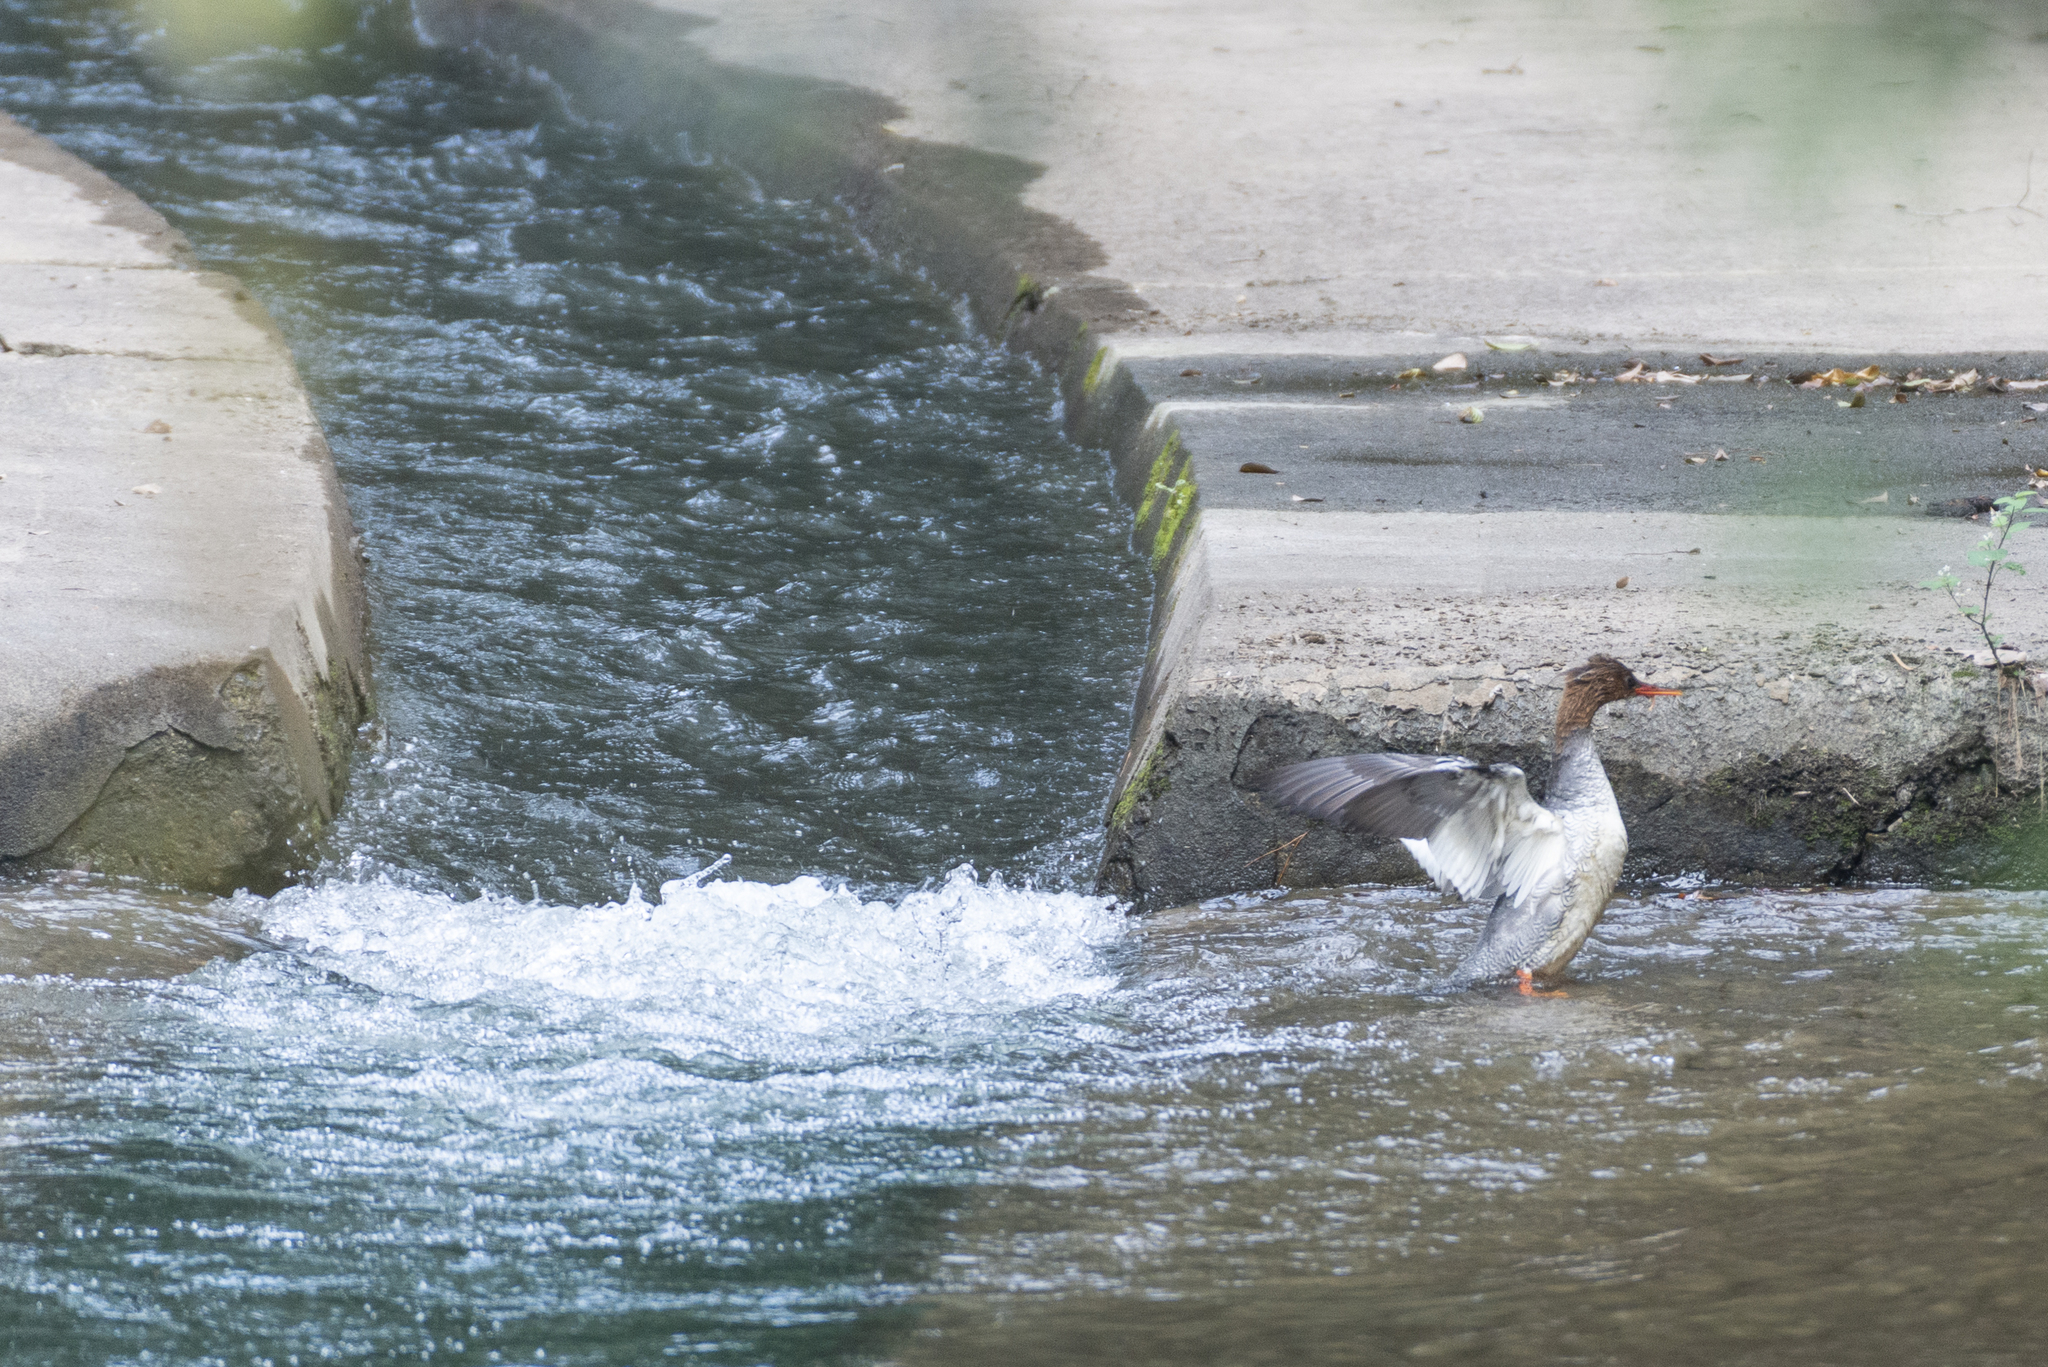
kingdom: Animalia
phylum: Chordata
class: Aves
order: Anseriformes
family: Anatidae
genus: Mergus
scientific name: Mergus squamatus
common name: Scaly-sided merganser
